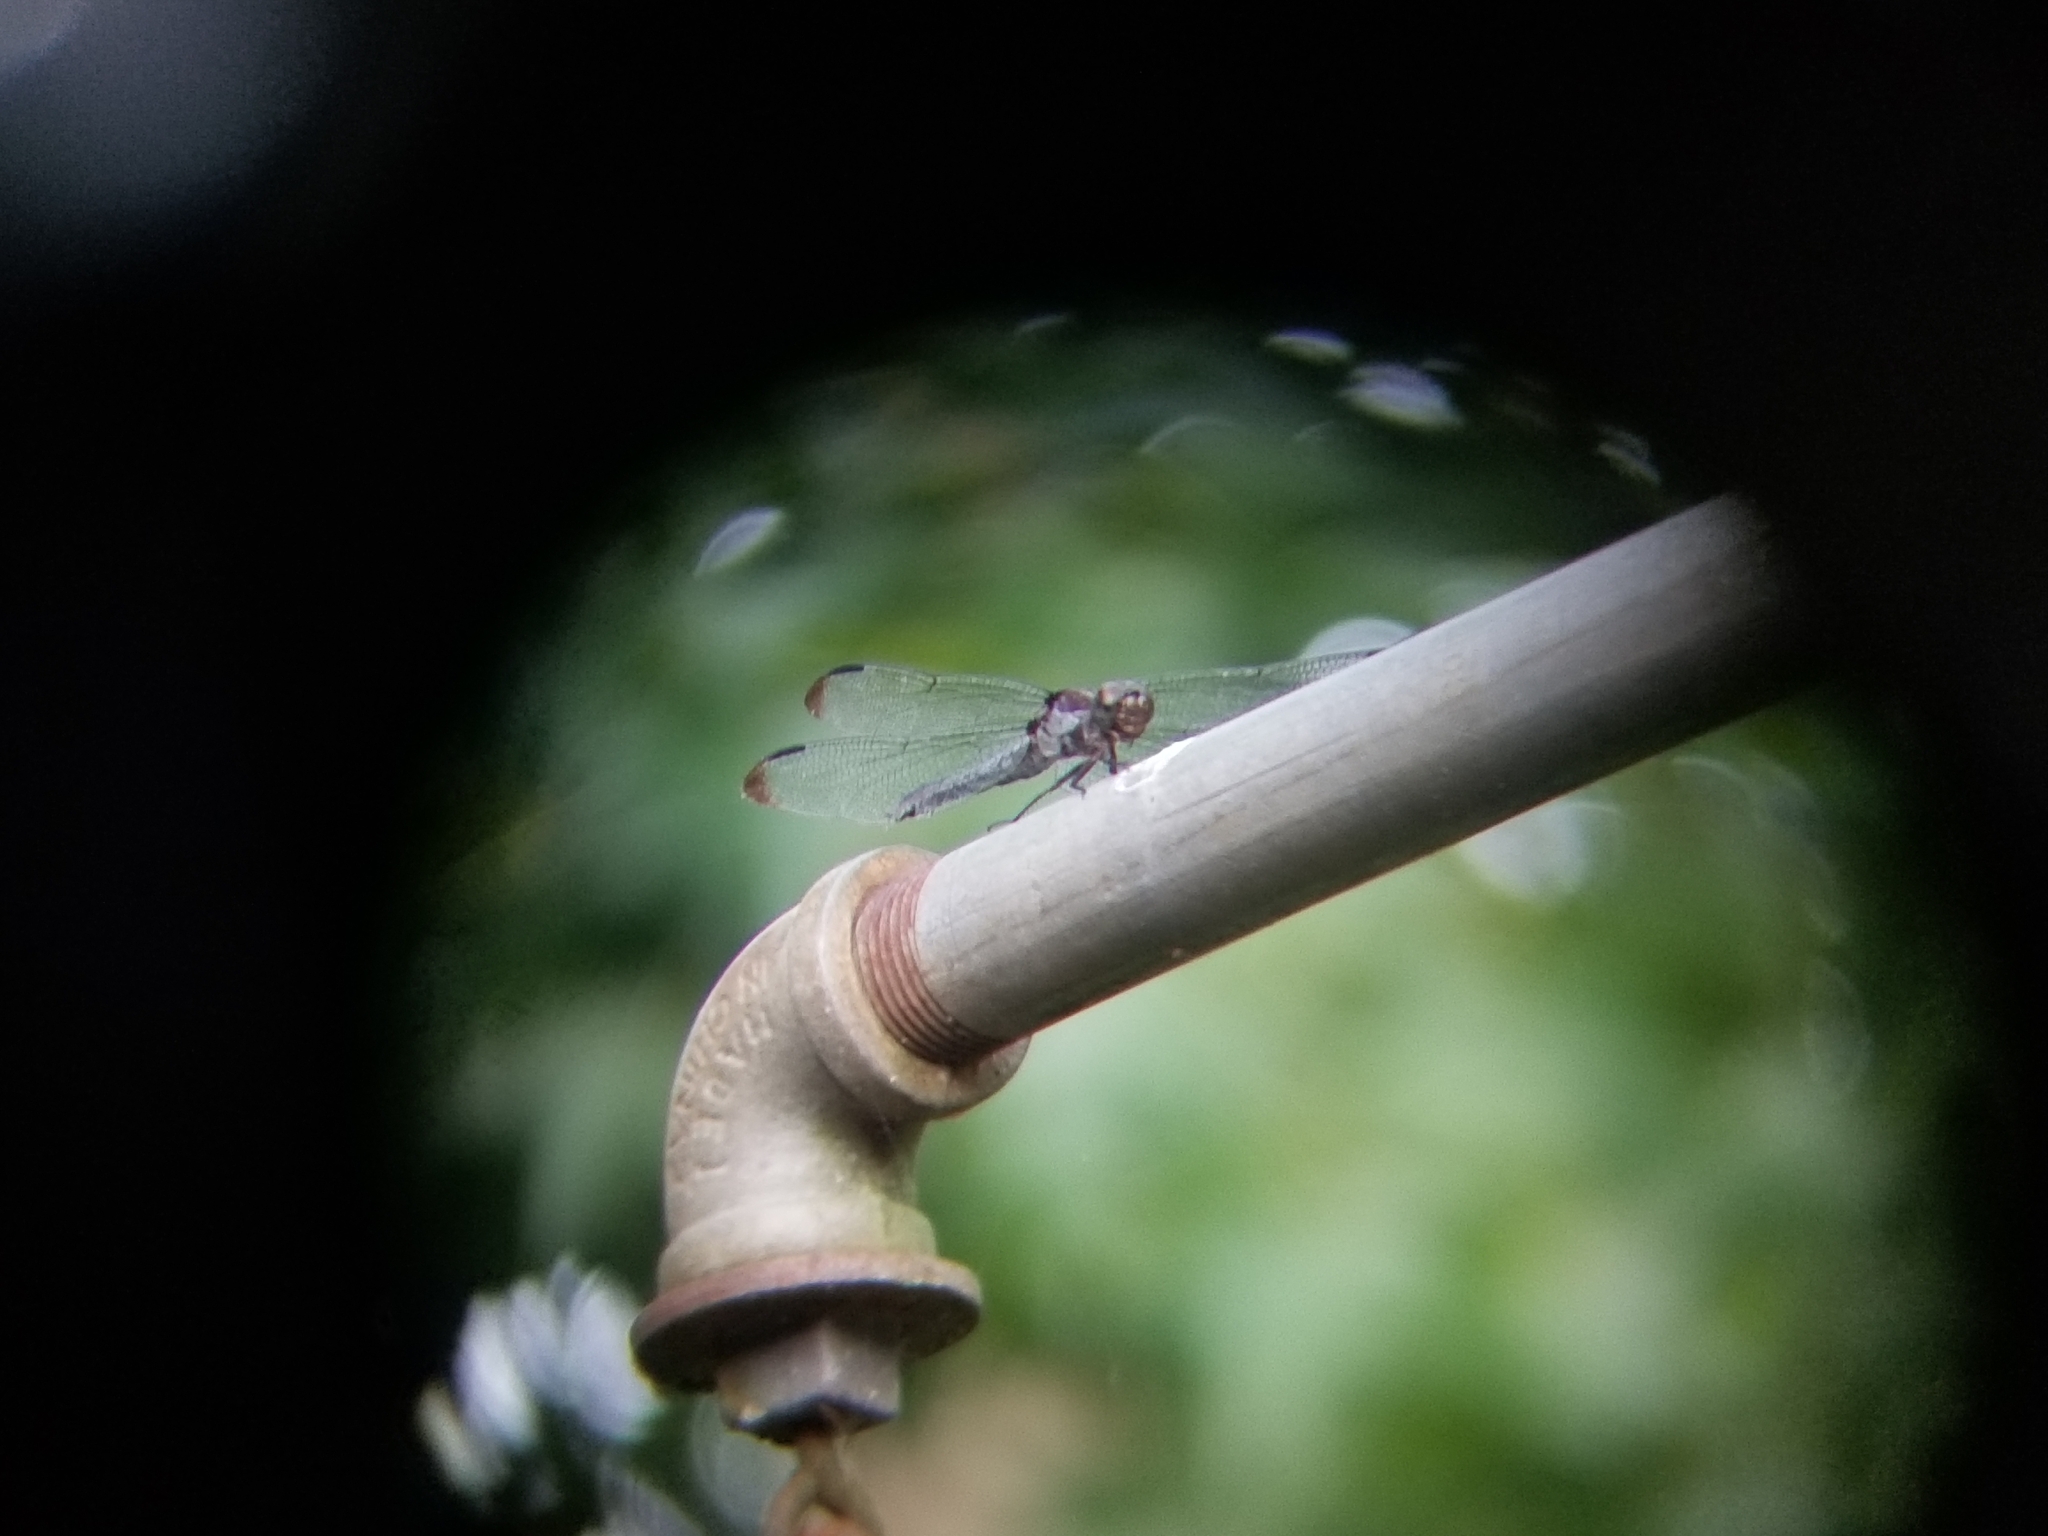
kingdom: Animalia
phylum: Arthropoda
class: Insecta
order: Odonata
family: Libellulidae
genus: Libellula
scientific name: Libellula incesta
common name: Slaty skimmer
